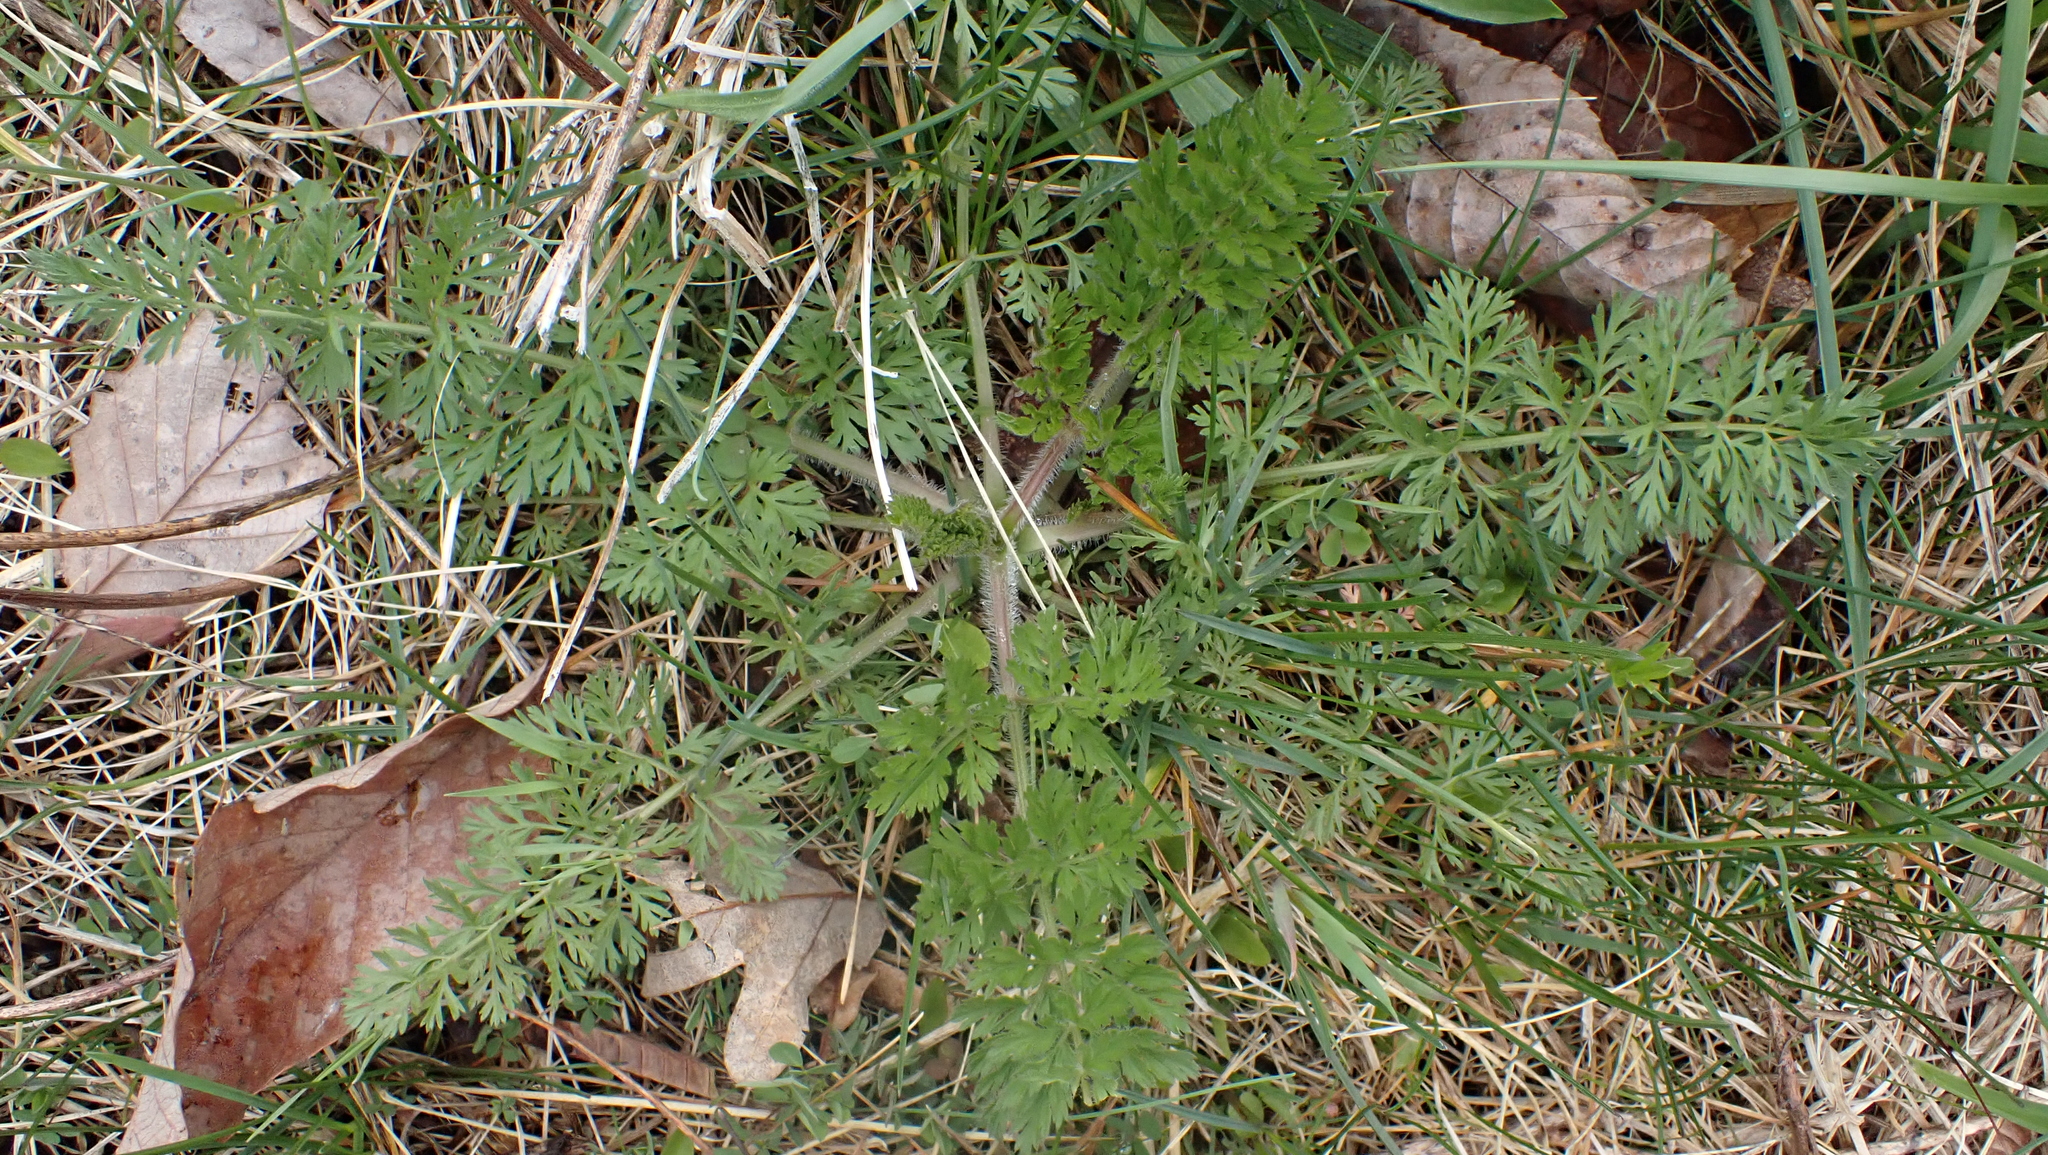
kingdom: Plantae
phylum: Tracheophyta
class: Magnoliopsida
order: Apiales
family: Apiaceae
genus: Daucus
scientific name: Daucus carota
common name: Wild carrot
